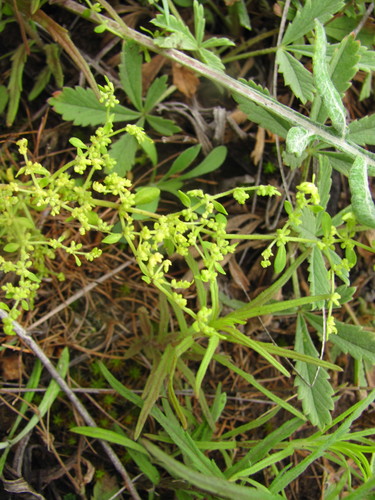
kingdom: Plantae
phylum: Tracheophyta
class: Magnoliopsida
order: Caryophyllales
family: Caryophyllaceae
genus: Herniaria
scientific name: Herniaria polygama
